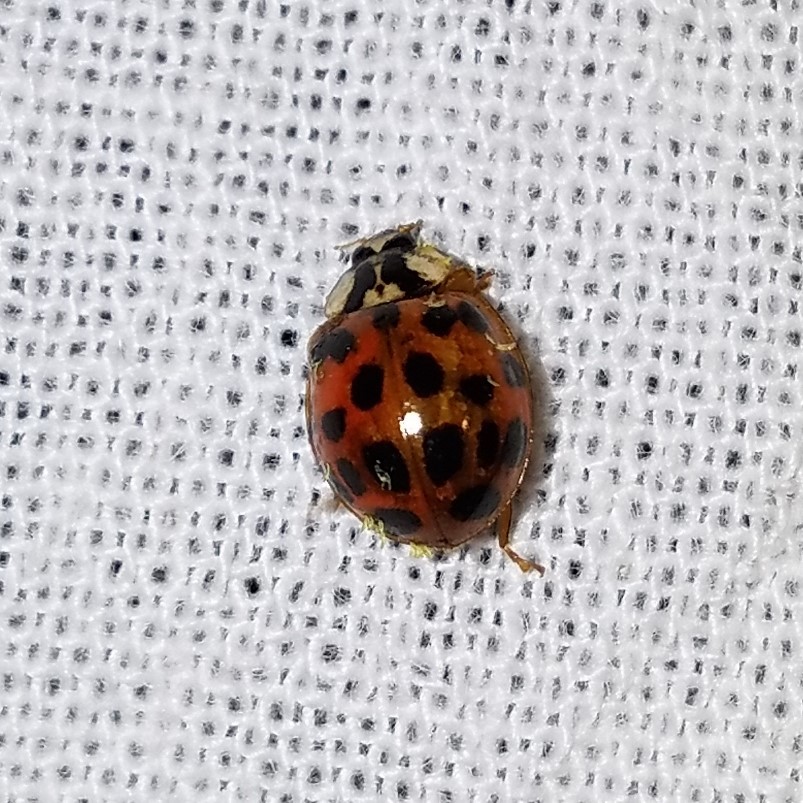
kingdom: Fungi
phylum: Ascomycota
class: Laboulbeniomycetes
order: Laboulbeniales
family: Laboulbeniaceae
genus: Hesperomyces
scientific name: Hesperomyces harmoniae
